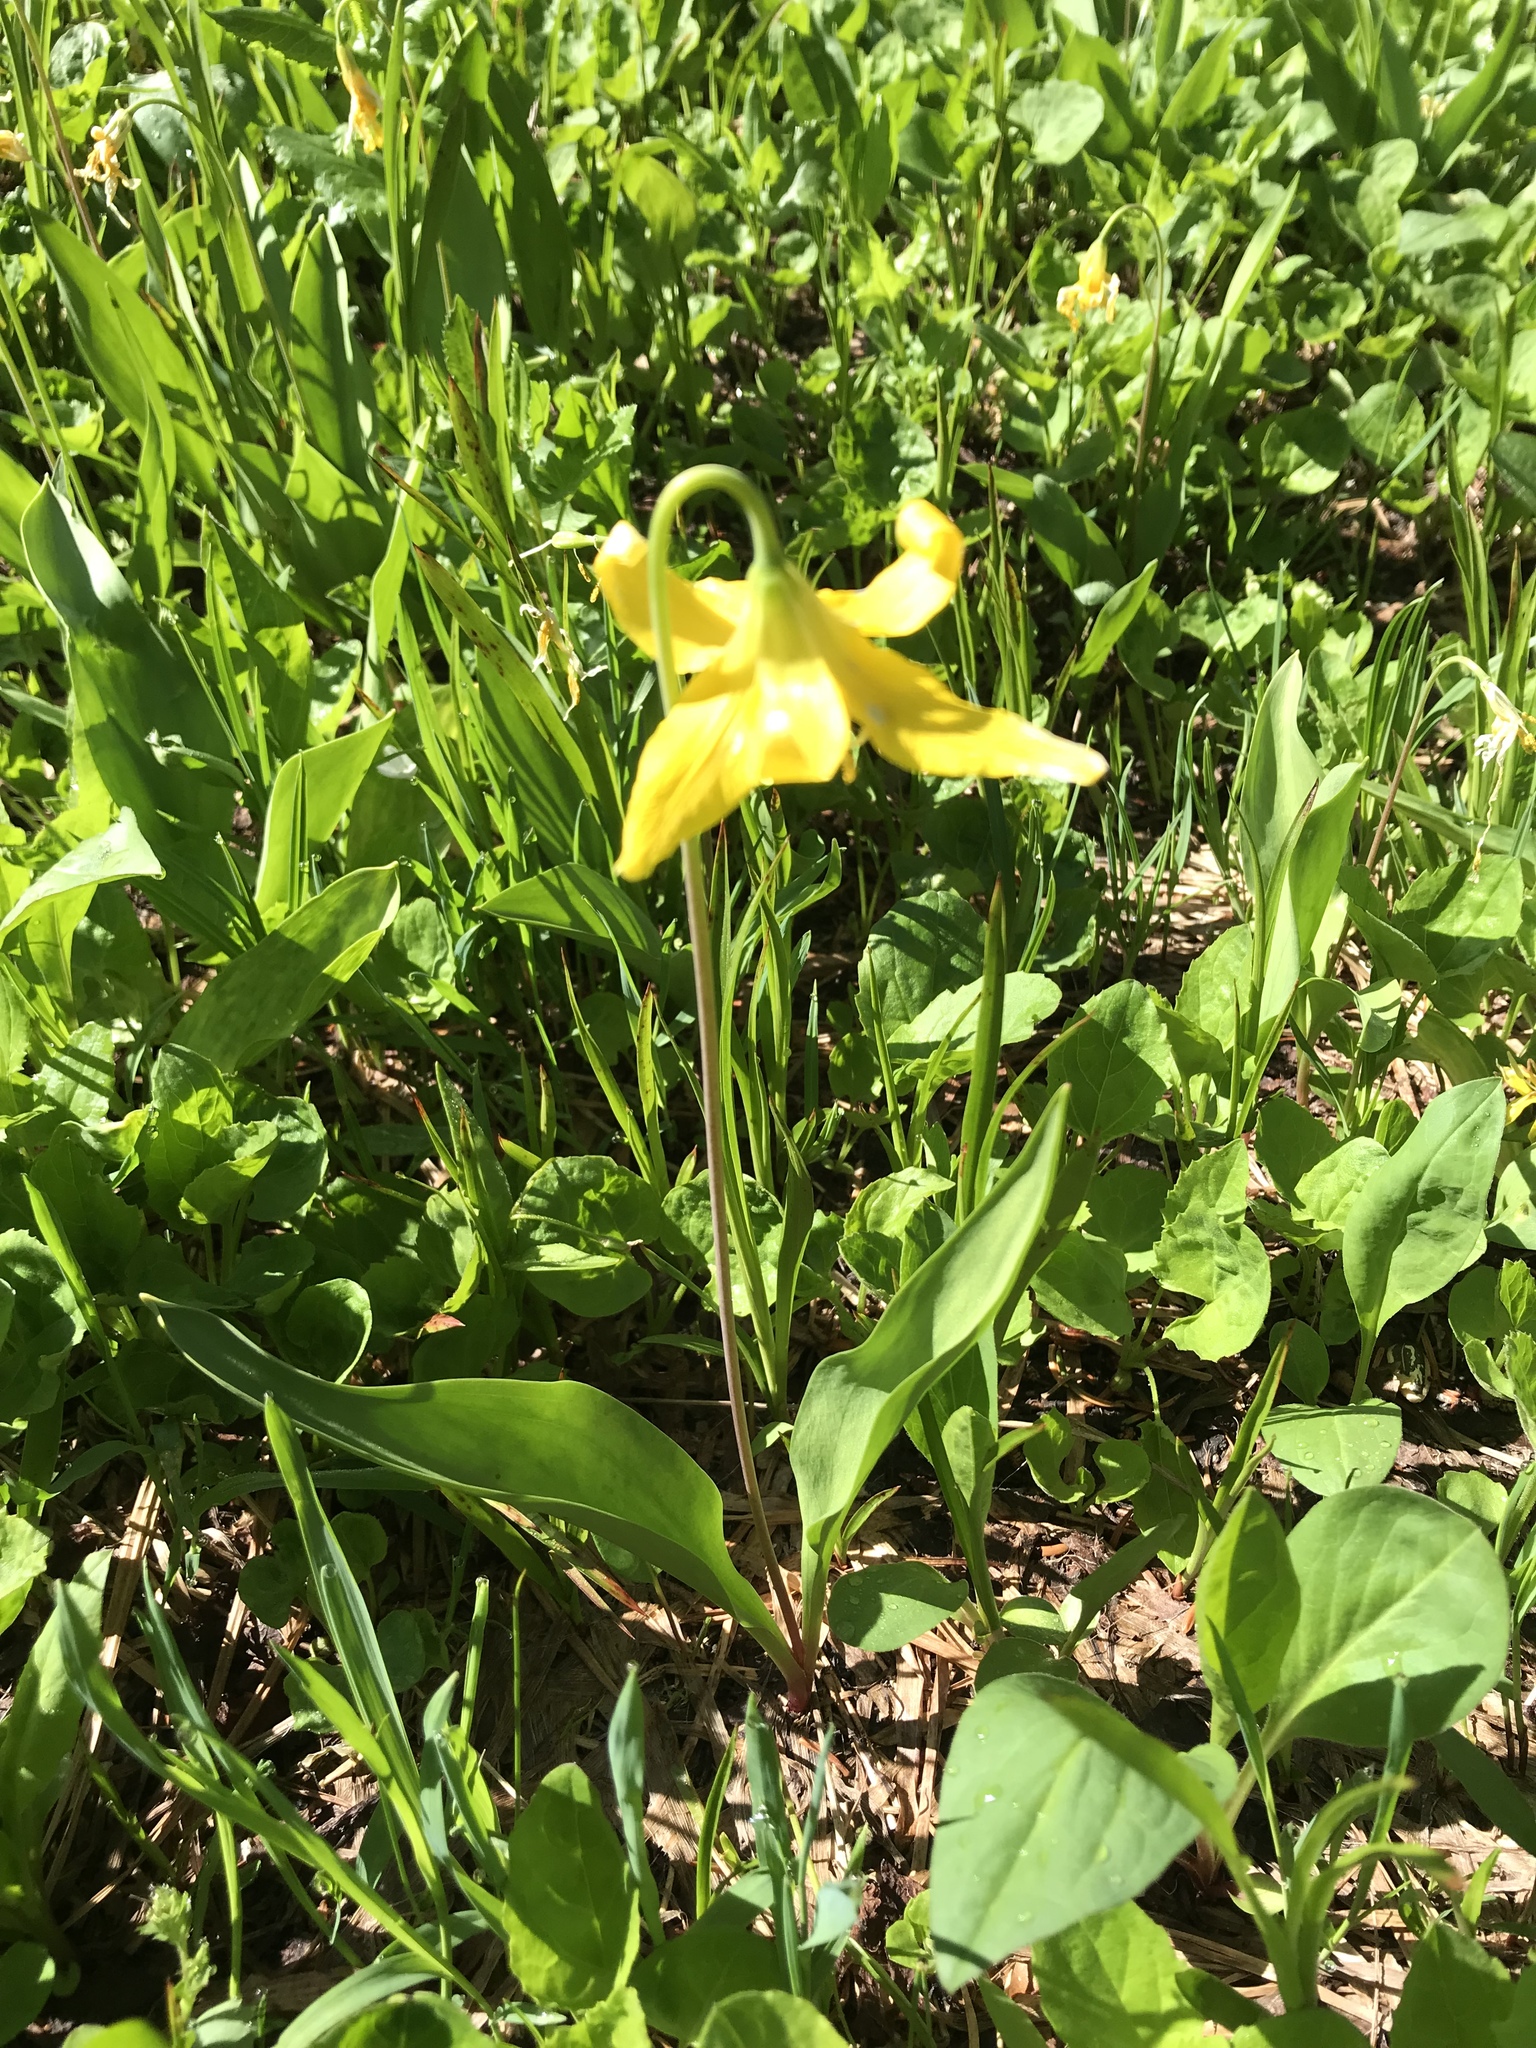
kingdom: Plantae
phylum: Tracheophyta
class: Liliopsida
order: Liliales
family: Liliaceae
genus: Erythronium
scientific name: Erythronium grandiflorum
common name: Avalanche-lily
